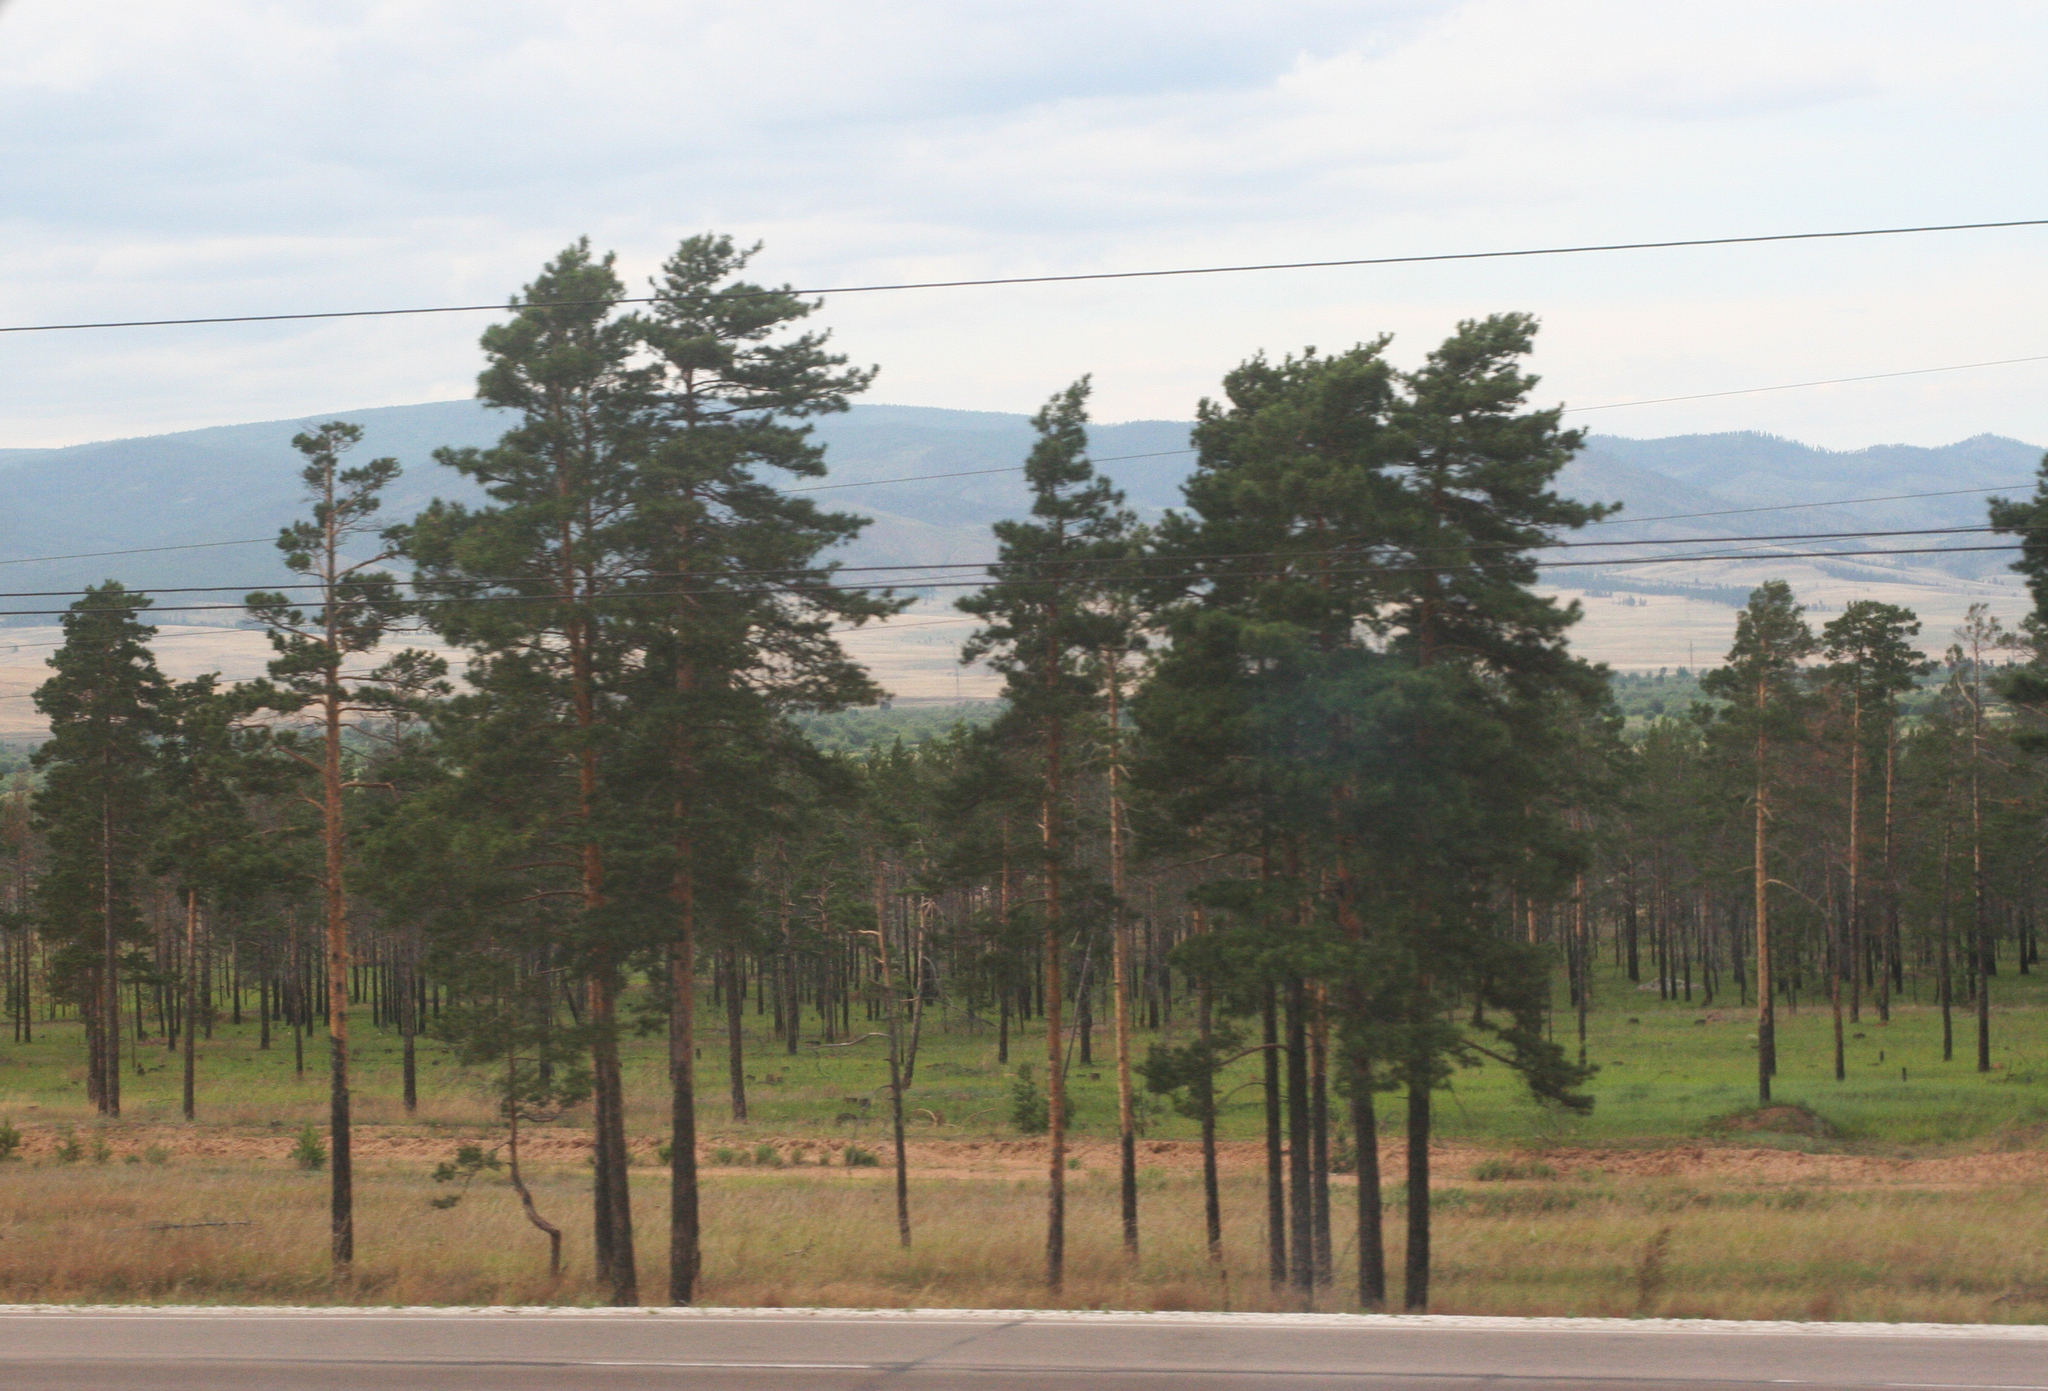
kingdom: Plantae
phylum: Tracheophyta
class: Pinopsida
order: Pinales
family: Pinaceae
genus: Pinus
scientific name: Pinus sylvestris
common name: Scots pine
